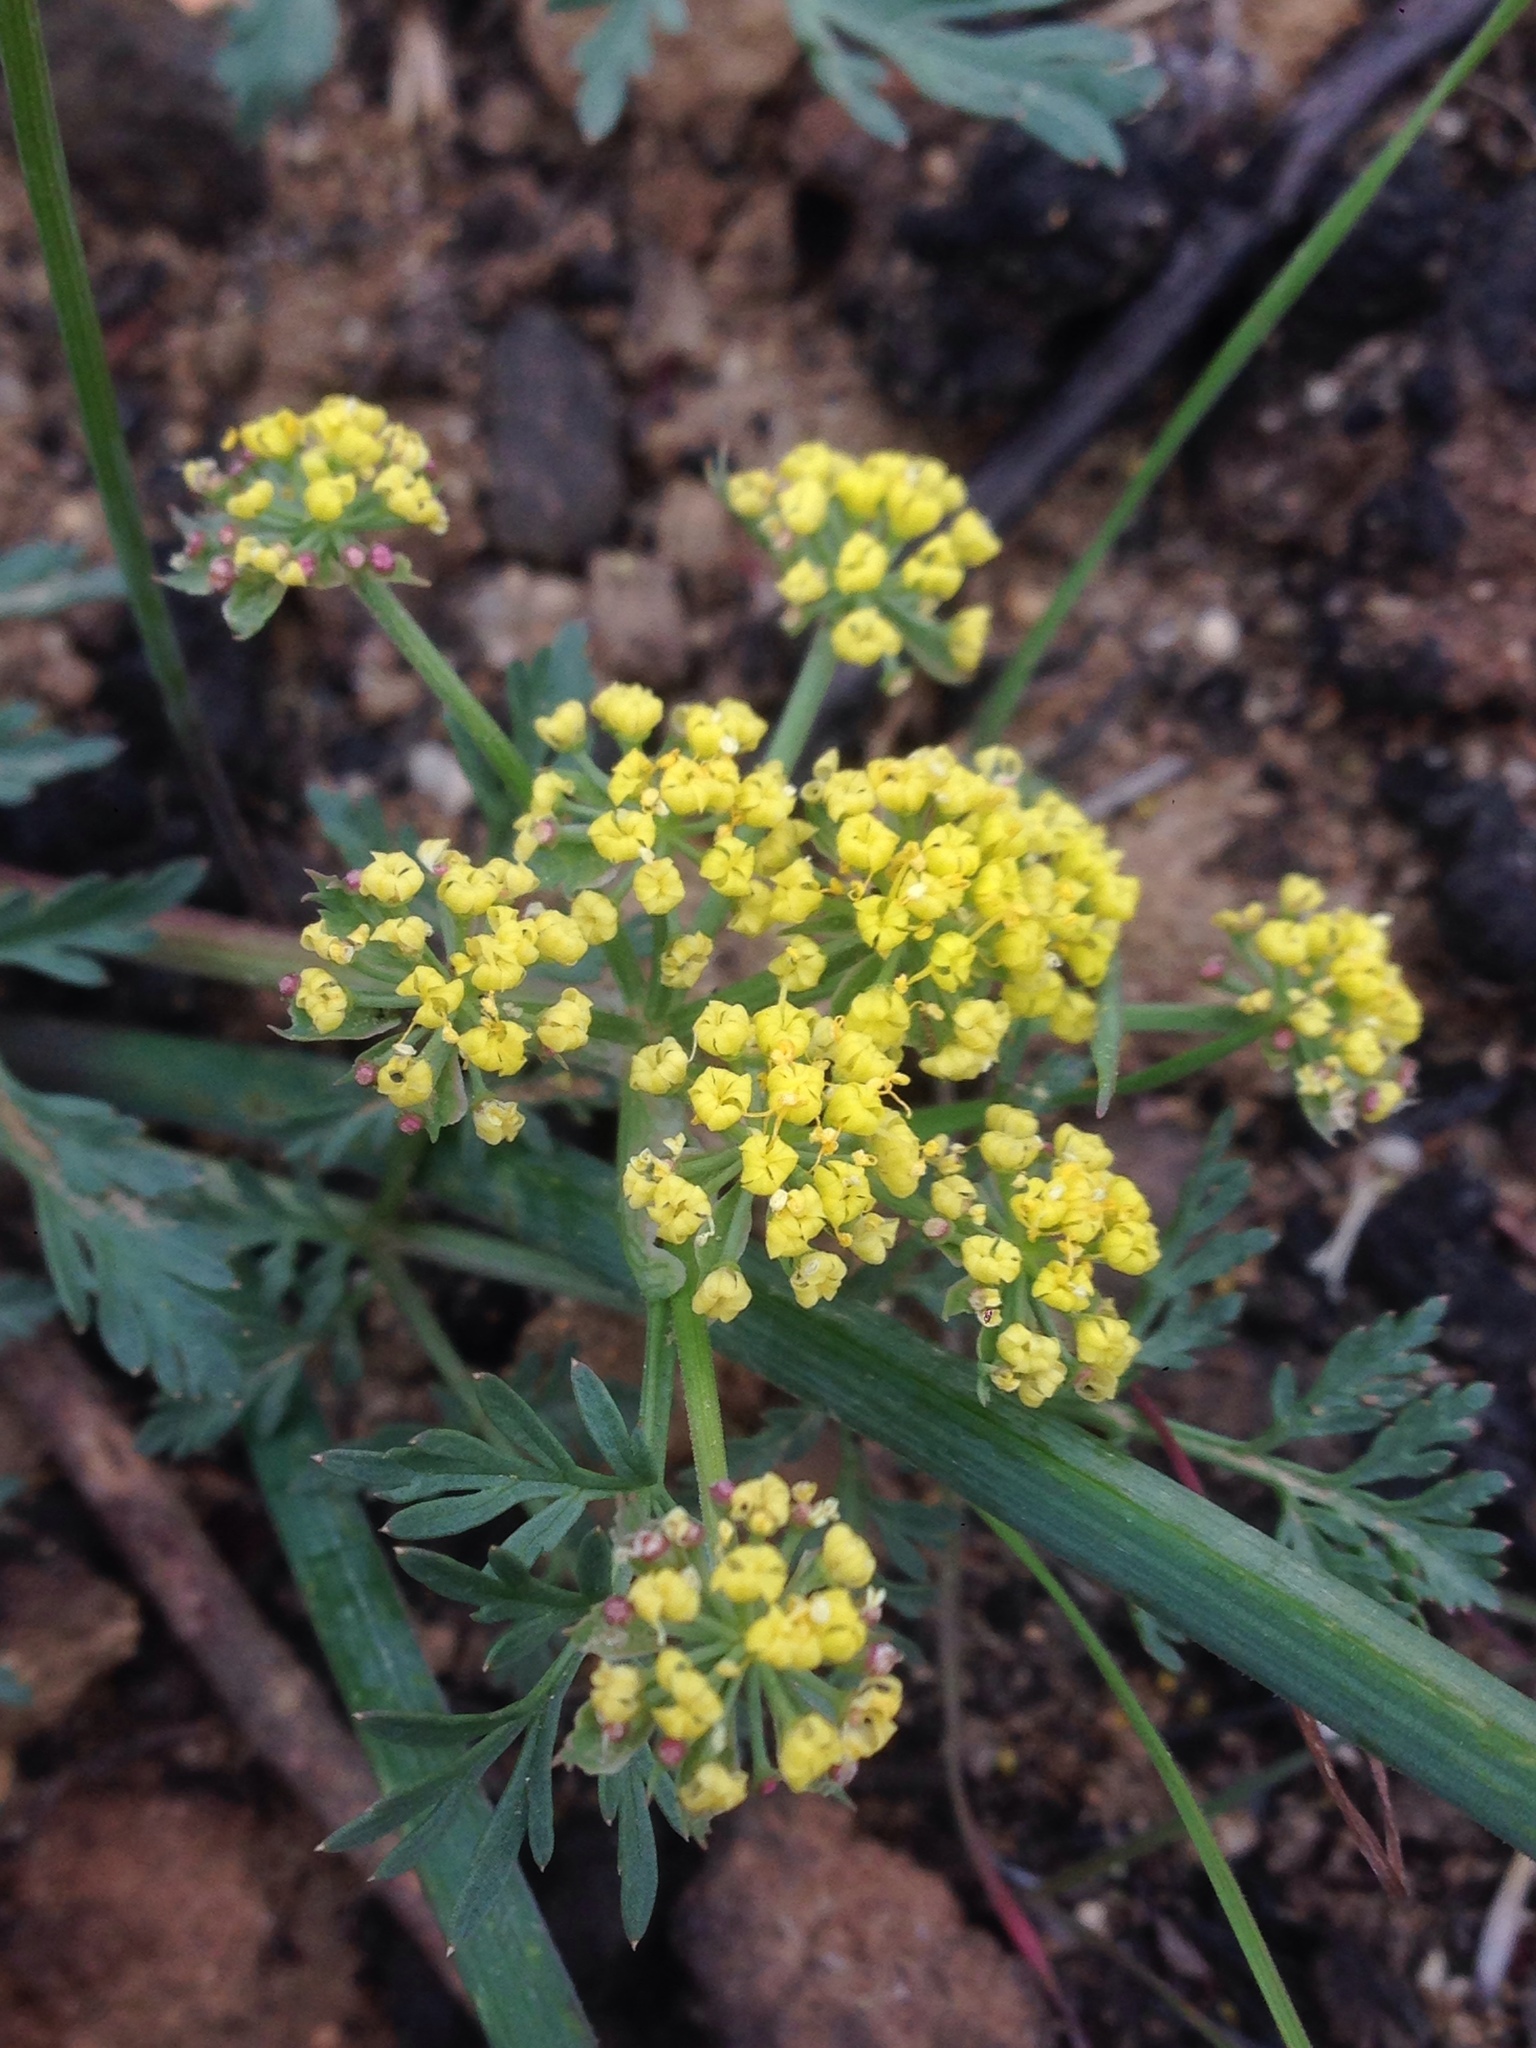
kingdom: Plantae
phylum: Tracheophyta
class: Magnoliopsida
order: Apiales
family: Apiaceae
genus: Lomatium
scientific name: Lomatium utriculatum
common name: Fine-leaf desert-parsley
